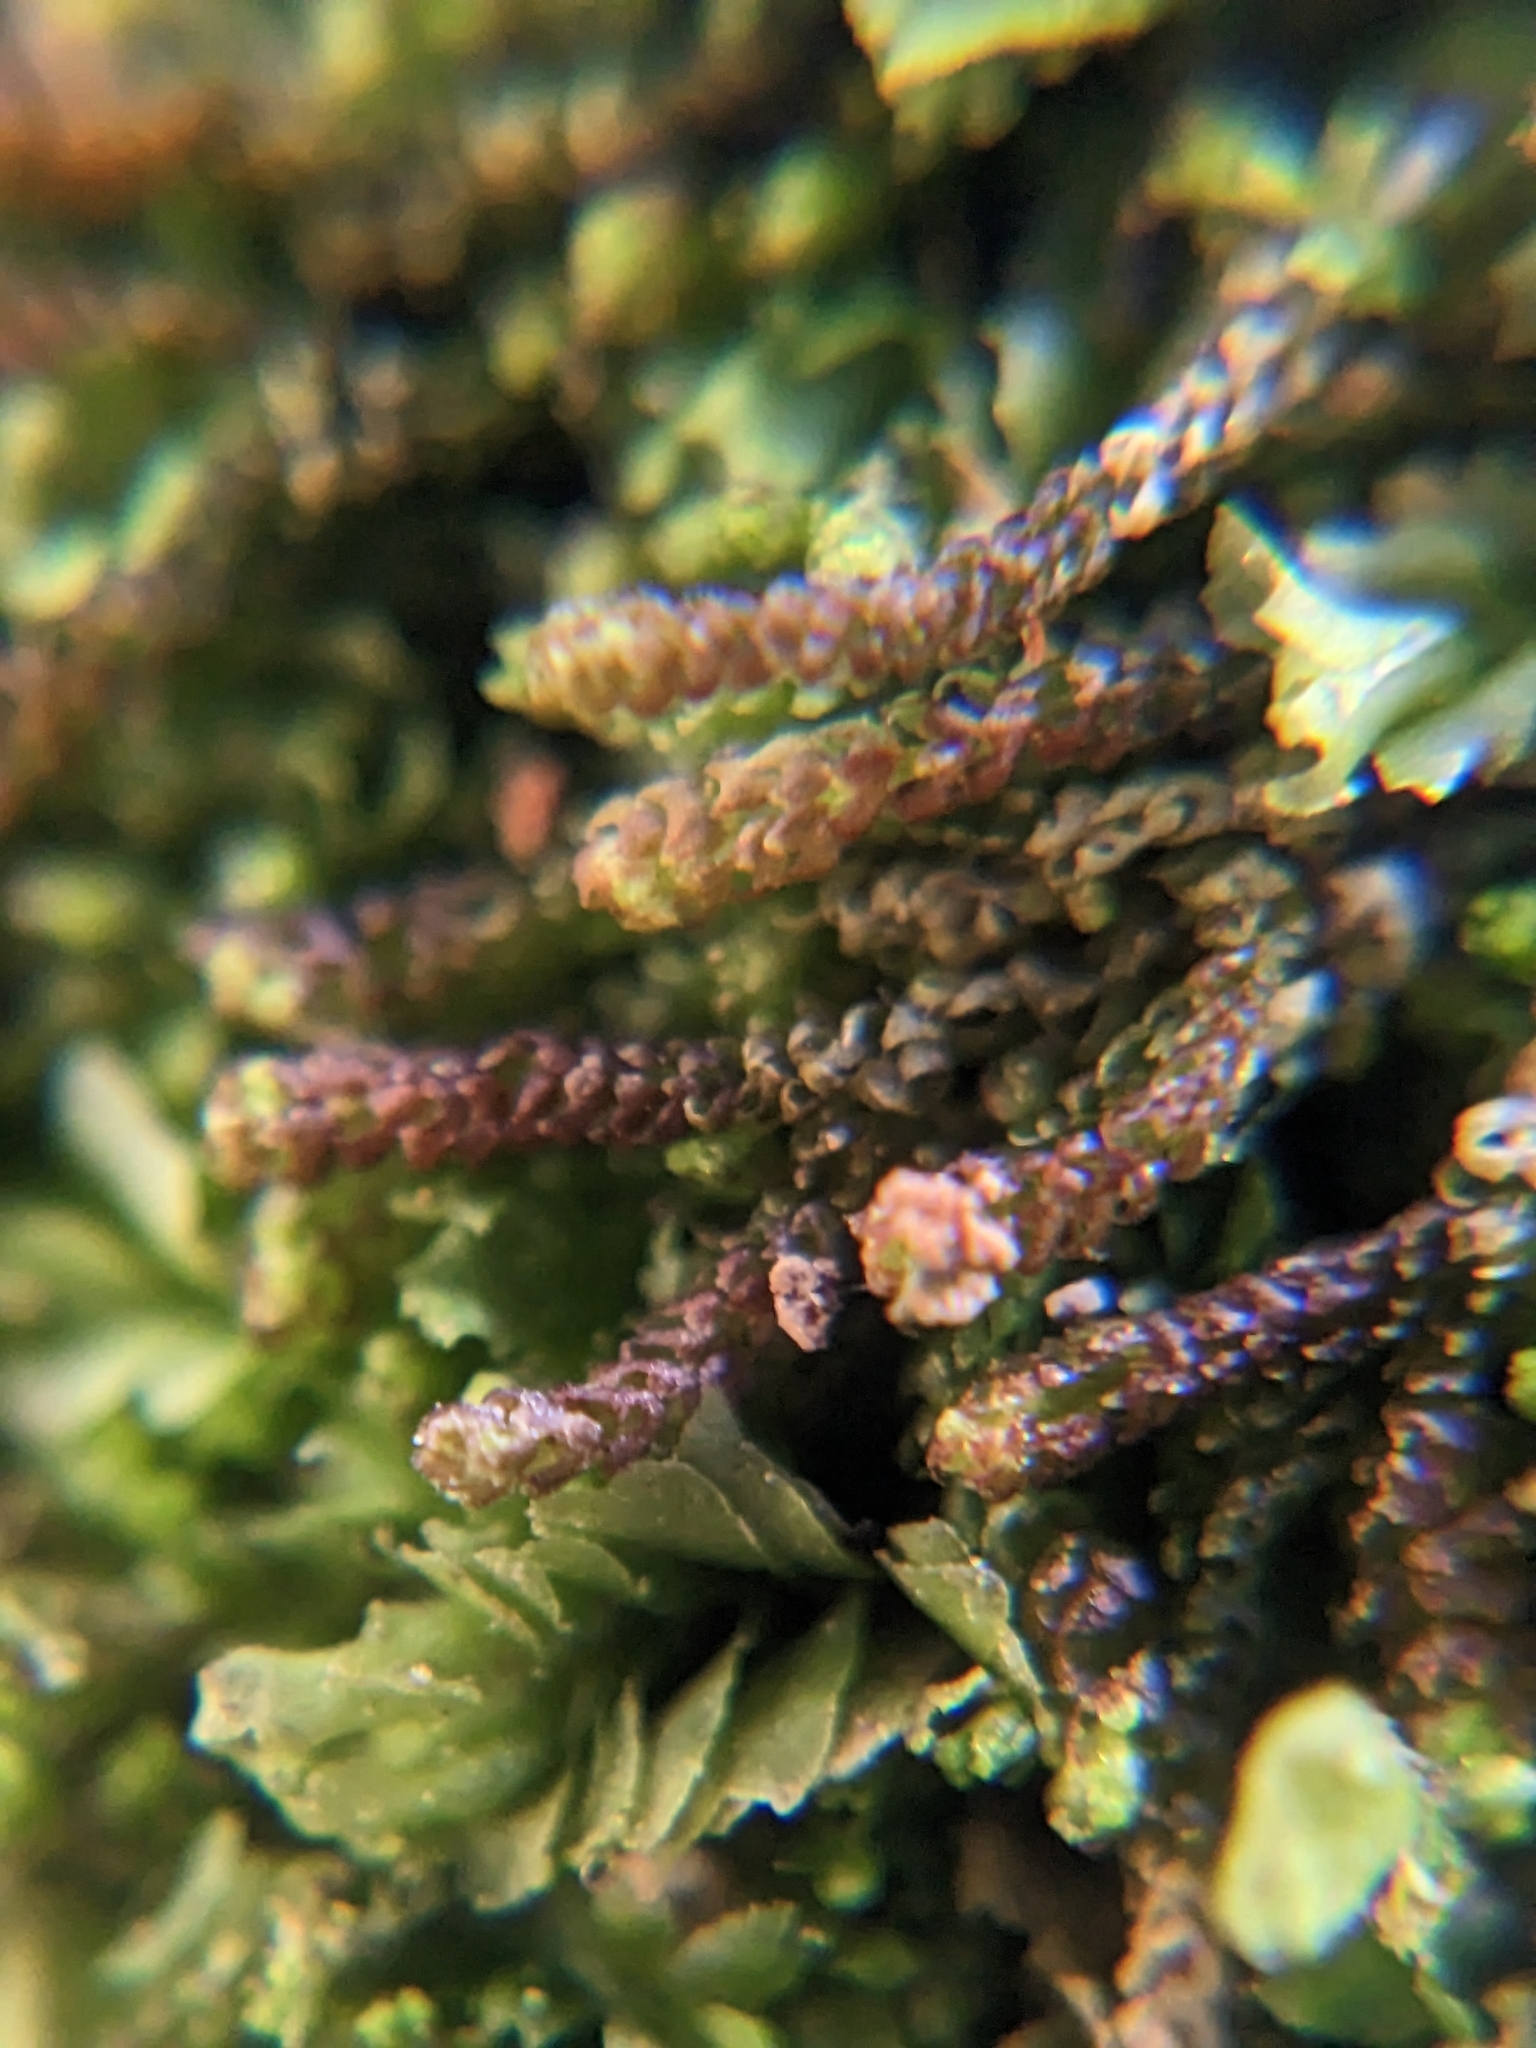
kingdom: Plantae
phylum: Marchantiophyta
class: Jungermanniopsida
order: Jungermanniales
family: Cephaloziaceae
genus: Nowellia
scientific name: Nowellia curvifolia
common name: Wood rustwort
